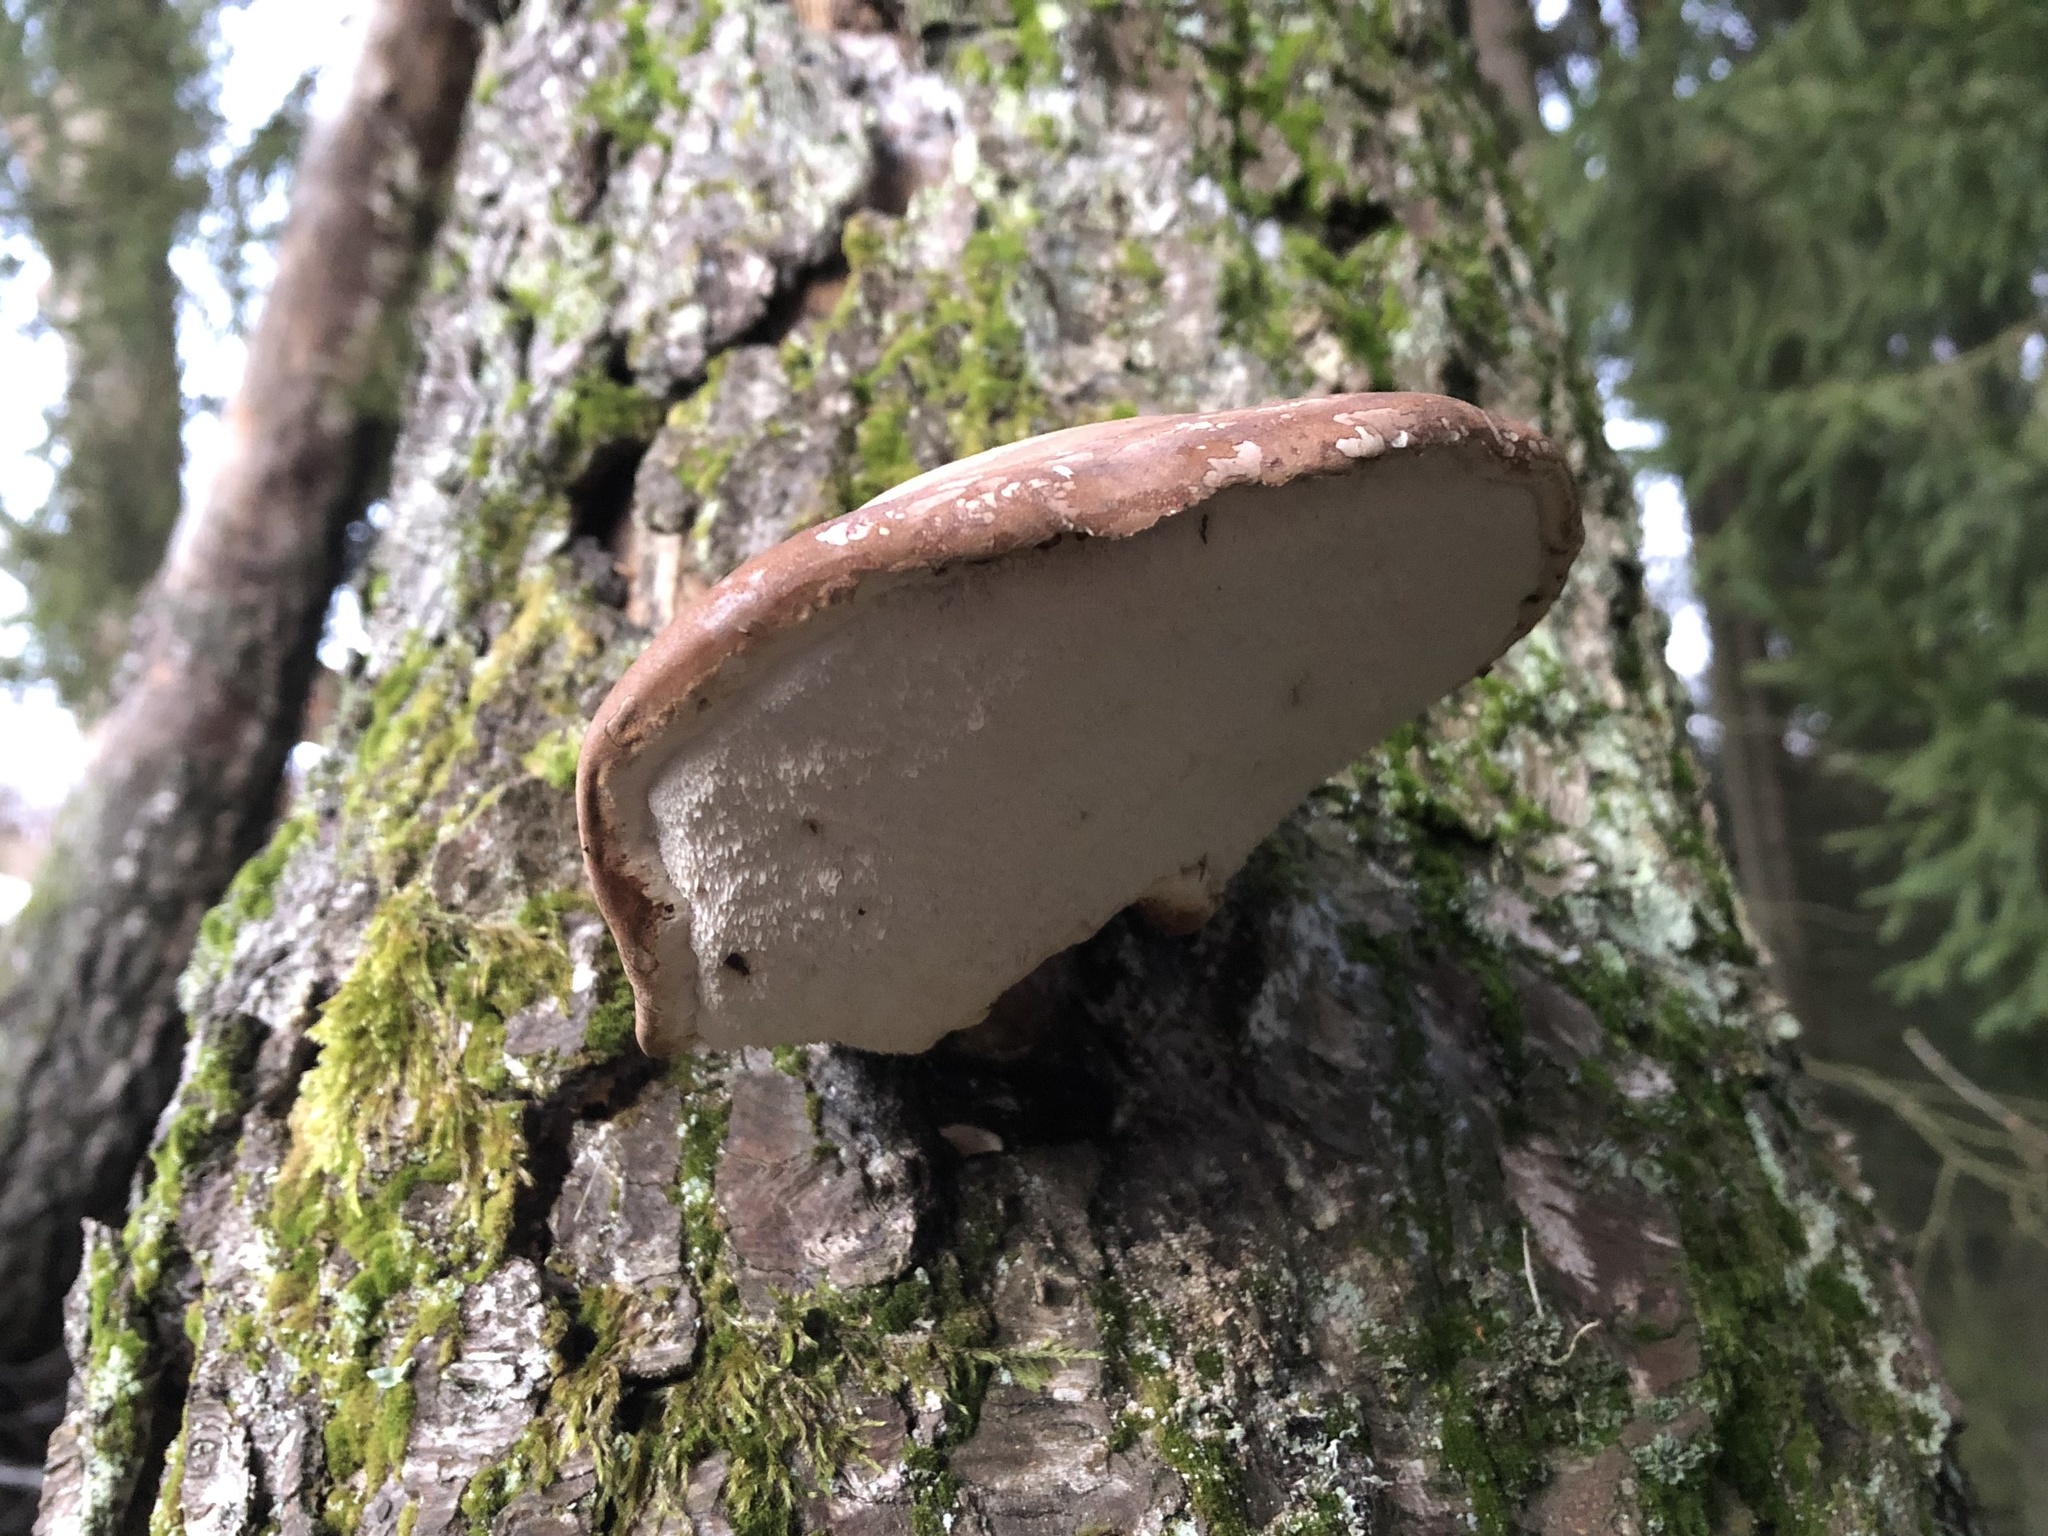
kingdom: Fungi
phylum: Basidiomycota
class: Agaricomycetes
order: Polyporales
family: Fomitopsidaceae
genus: Fomitopsis
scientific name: Fomitopsis betulina
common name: Birch polypore
